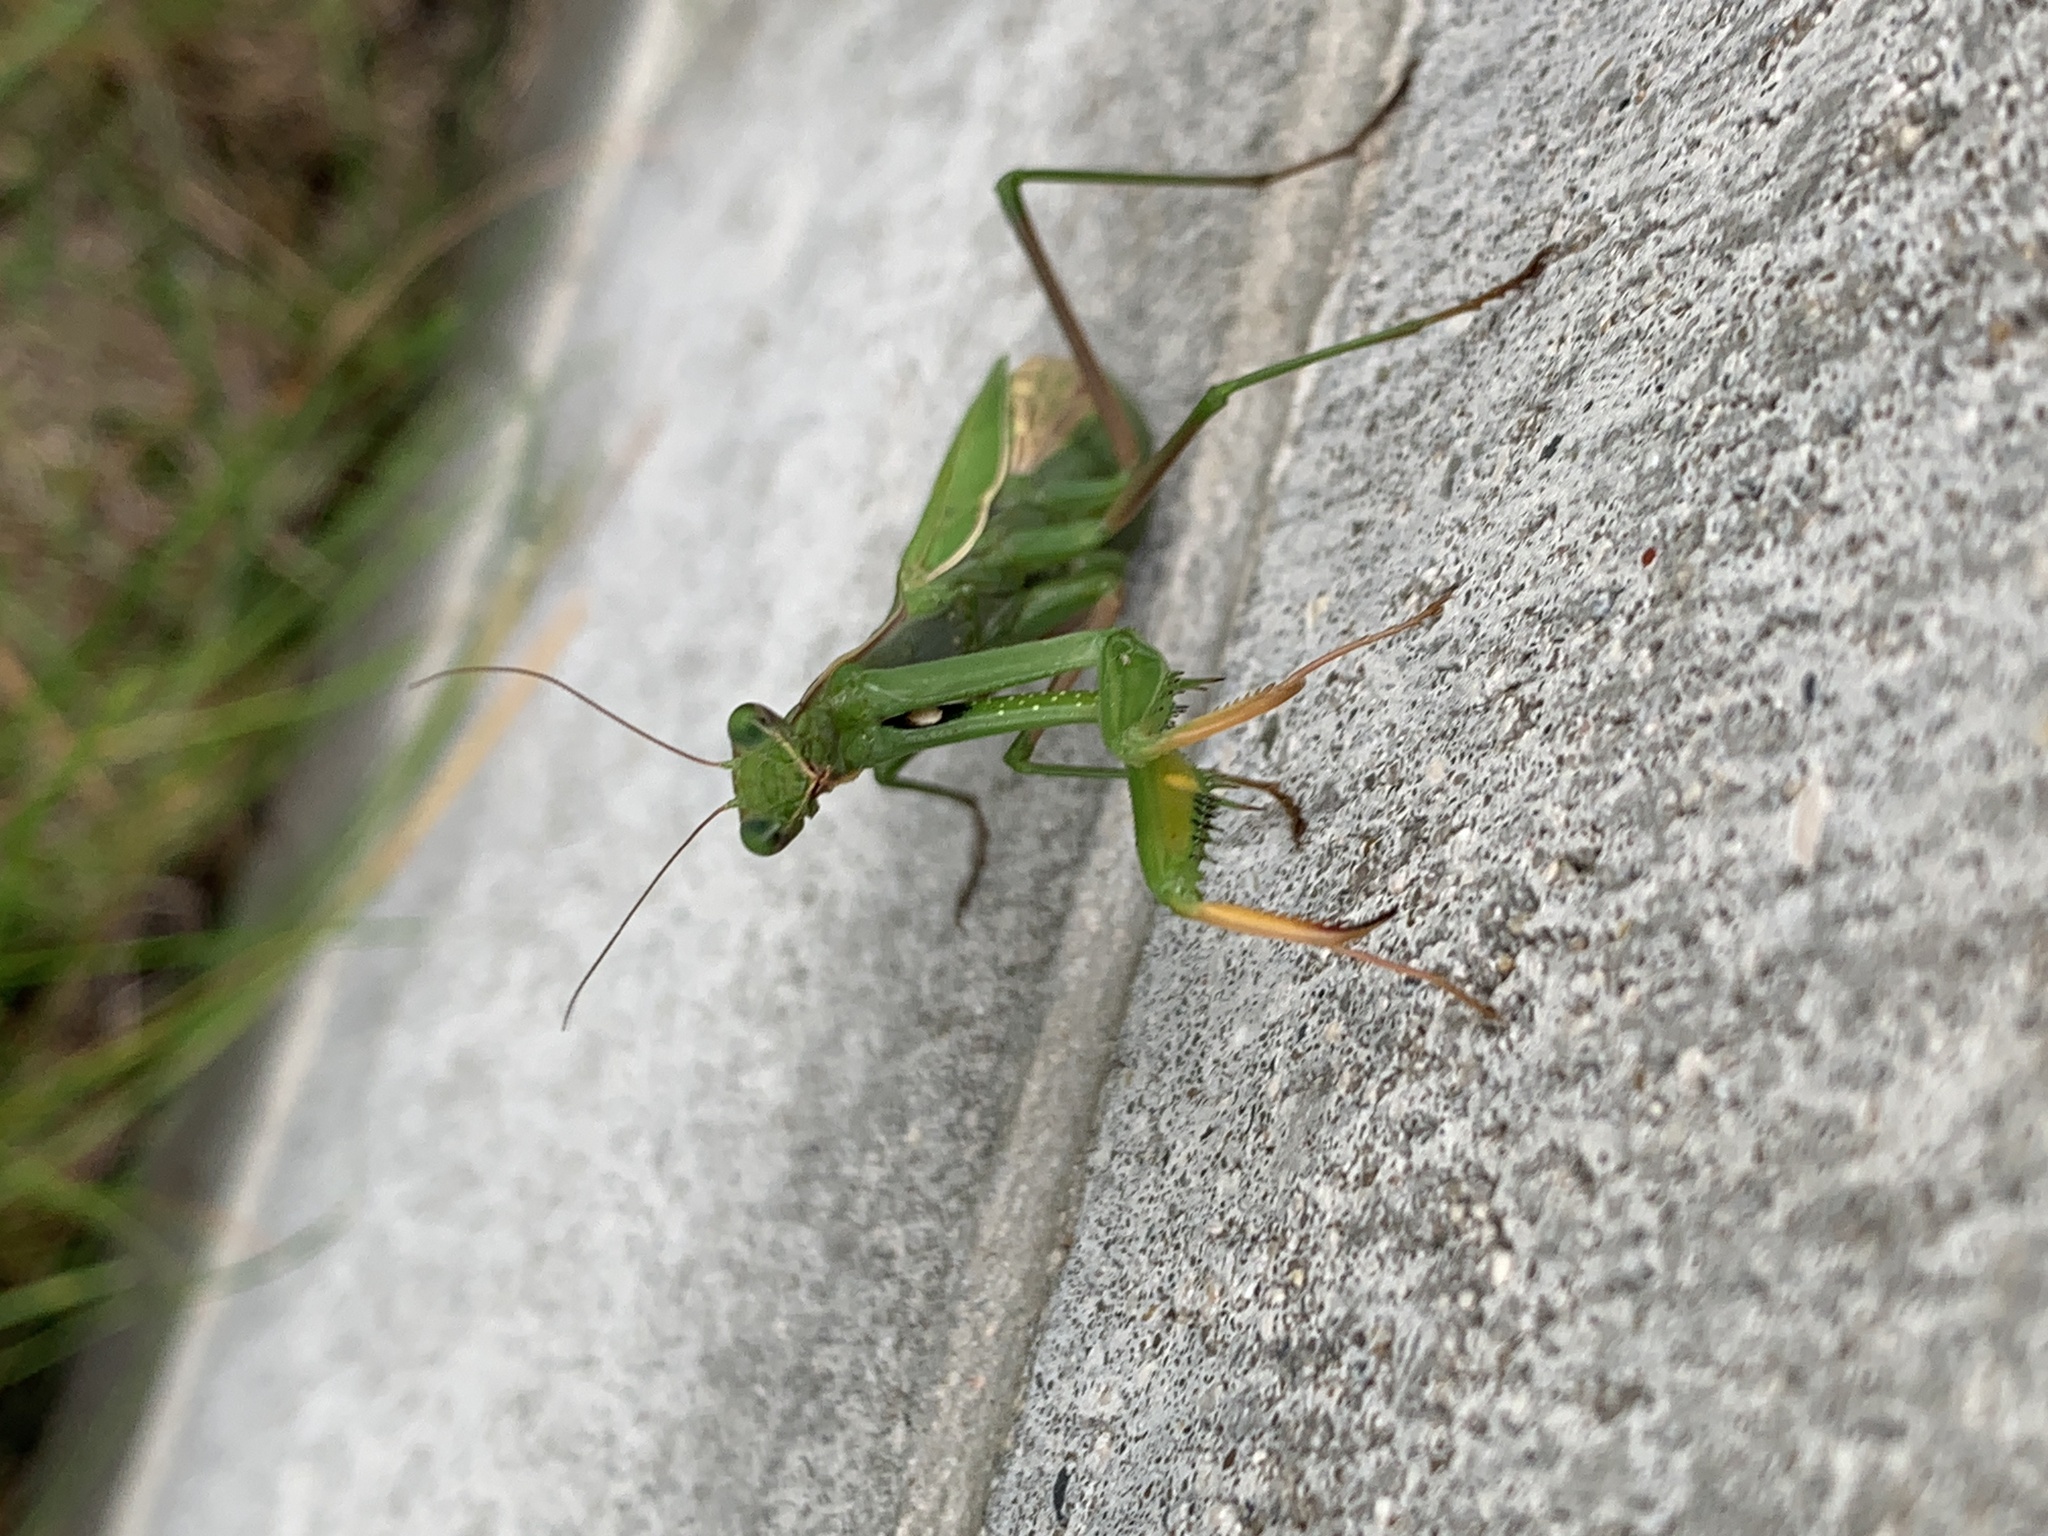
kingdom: Animalia
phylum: Arthropoda
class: Insecta
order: Mantodea
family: Mantidae
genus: Mantis
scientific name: Mantis religiosa
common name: Praying mantis
